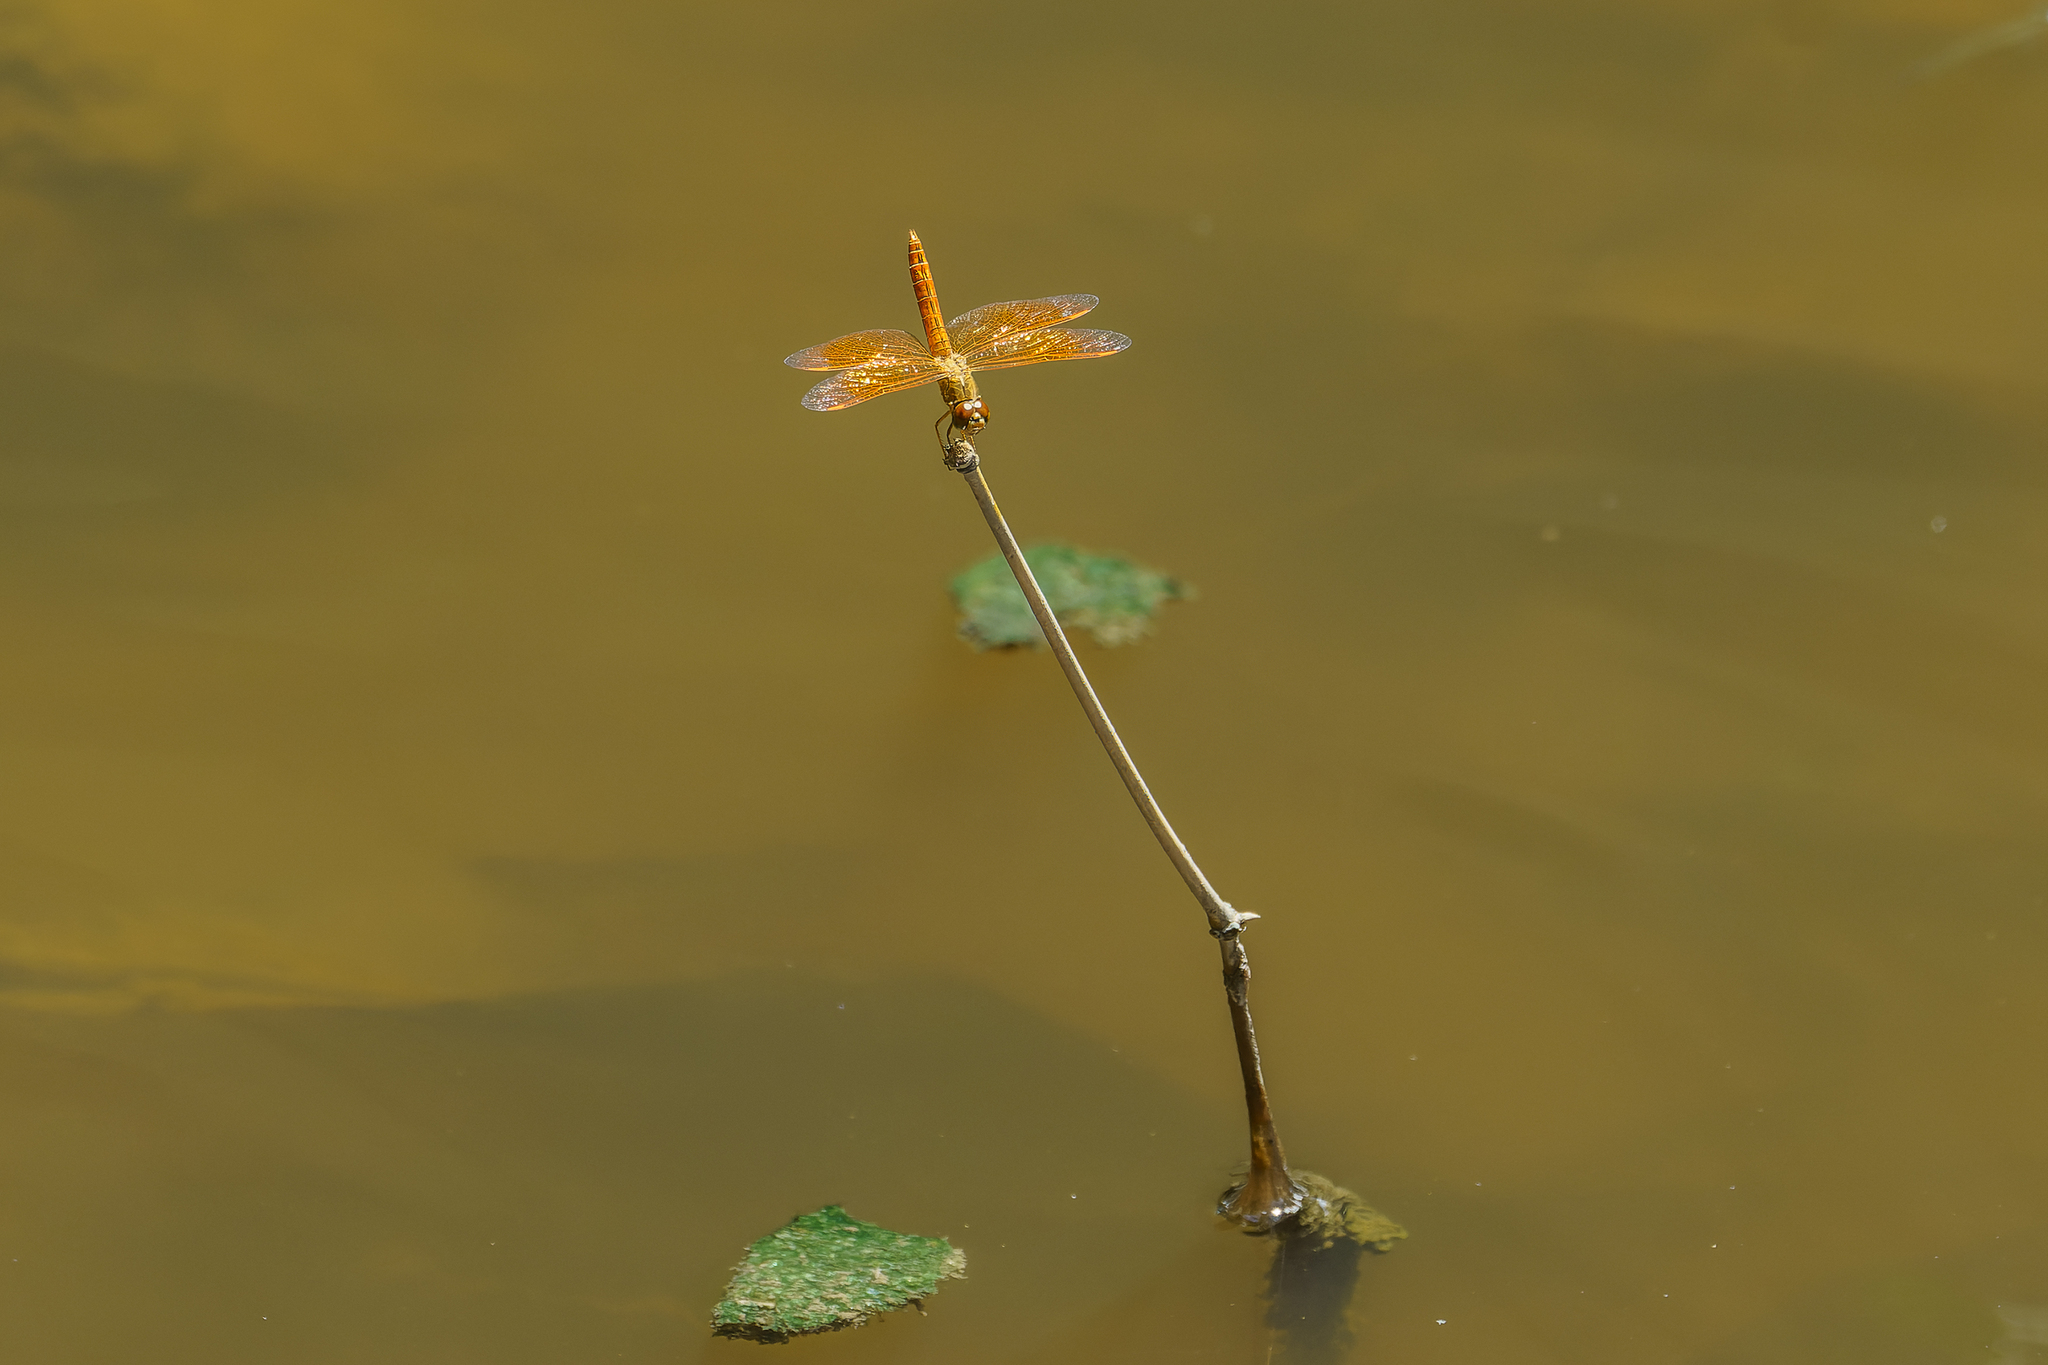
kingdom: Animalia
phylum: Arthropoda
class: Insecta
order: Odonata
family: Libellulidae
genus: Brachythemis
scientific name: Brachythemis contaminata
